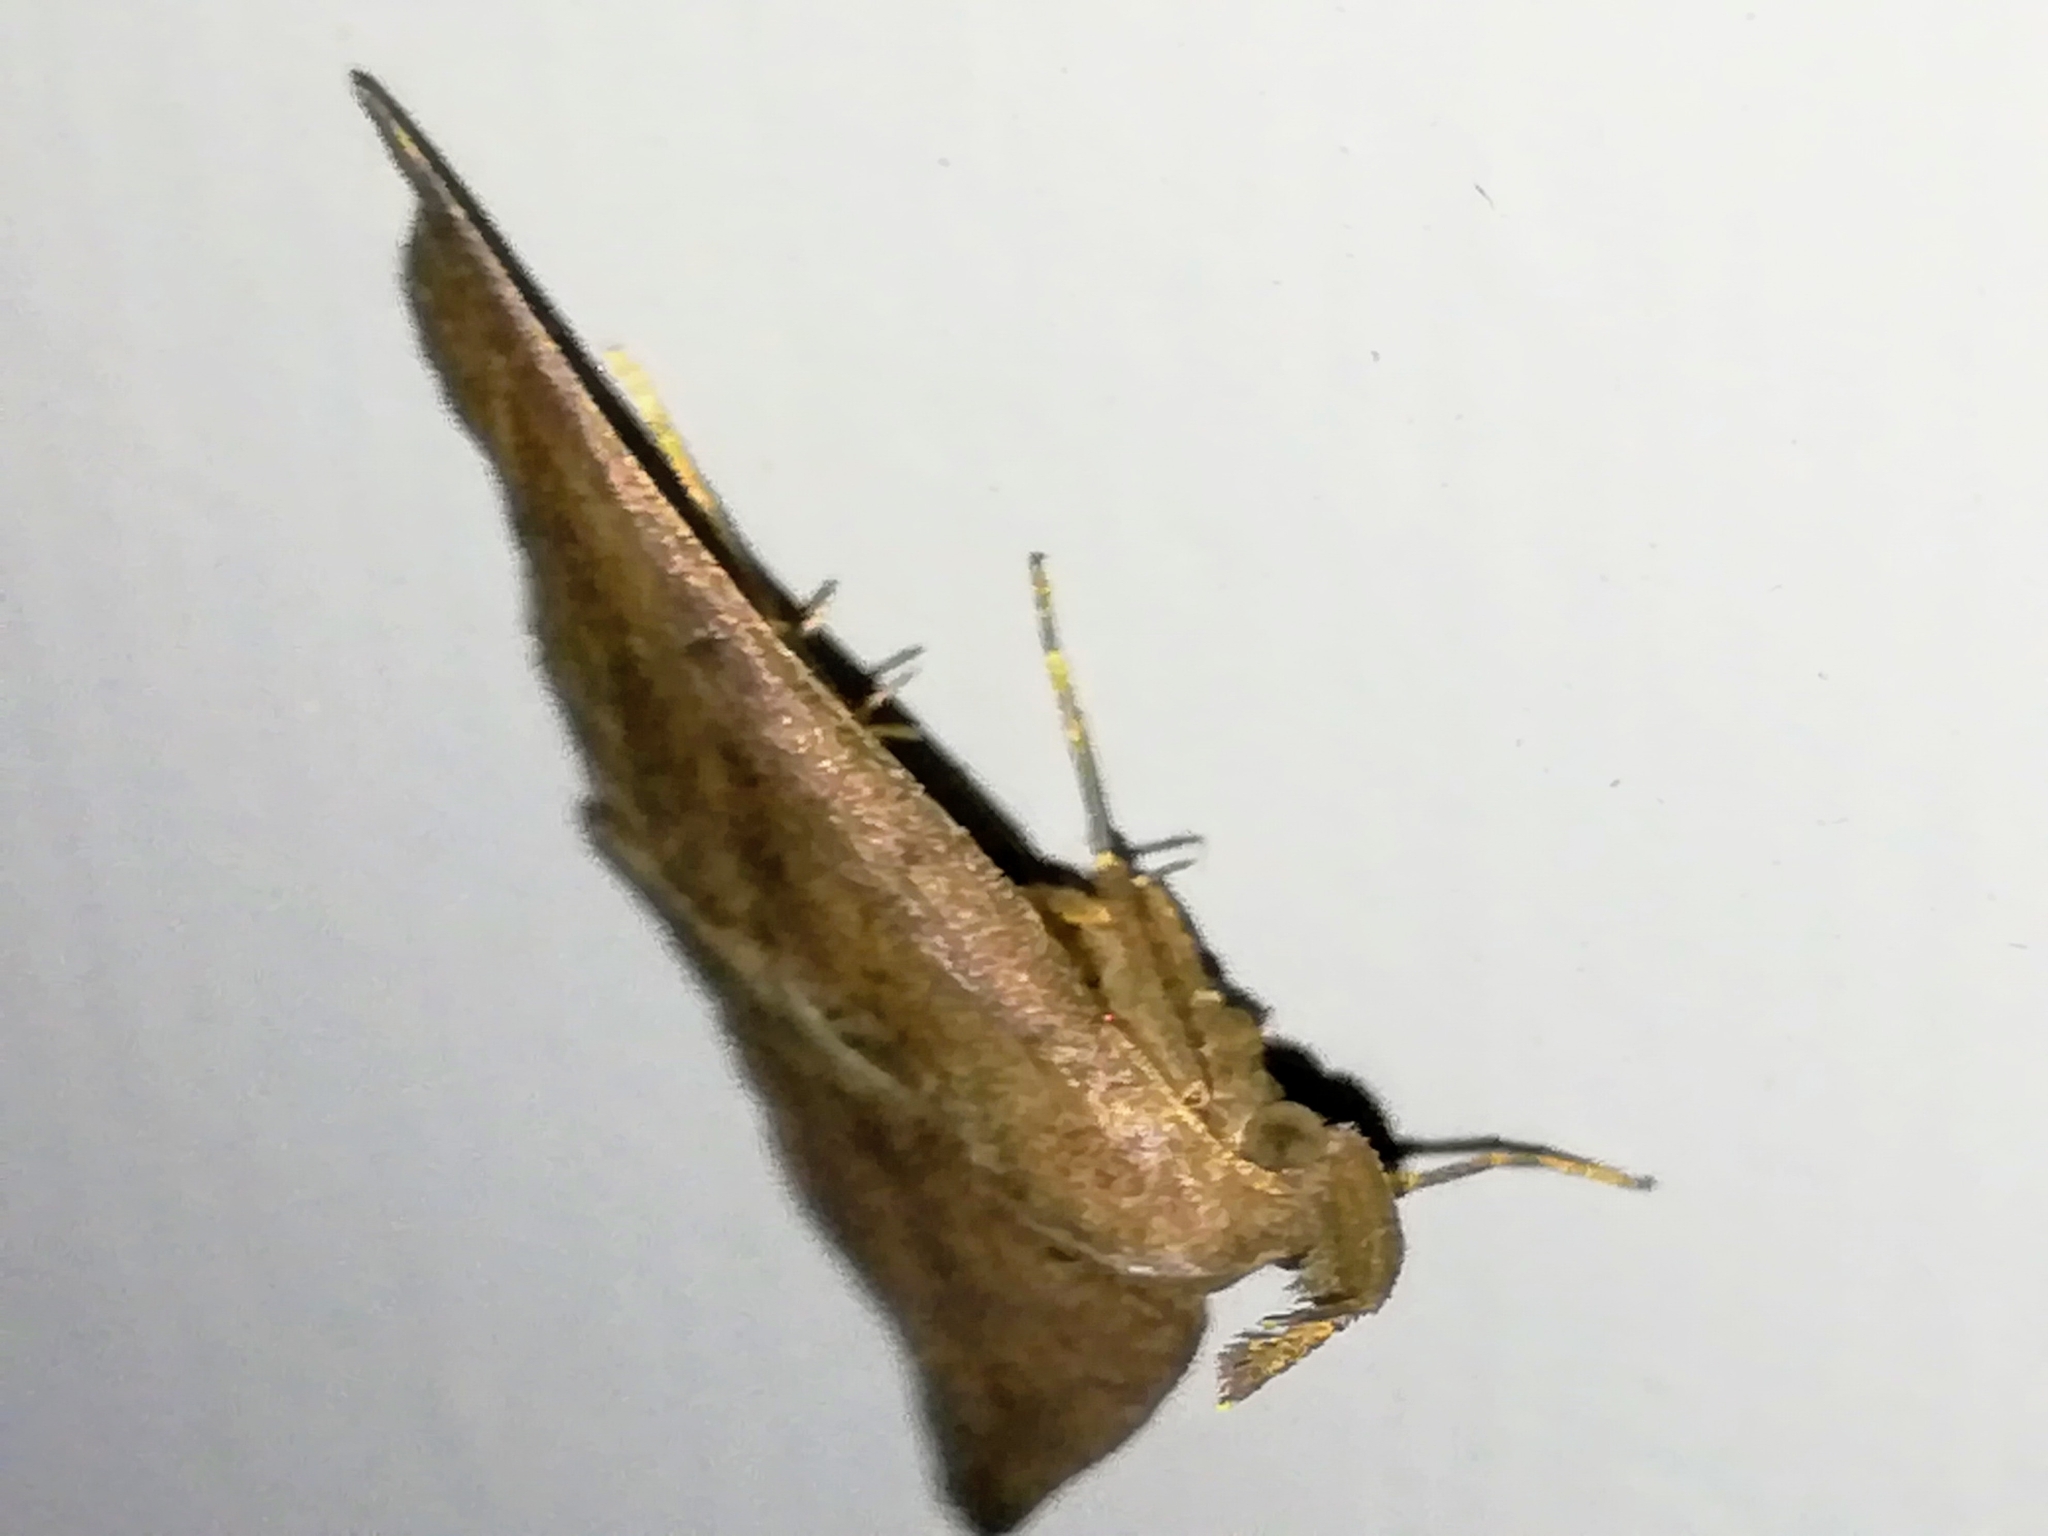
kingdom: Animalia
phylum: Arthropoda
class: Insecta
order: Lepidoptera
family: Erebidae
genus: Pechipogo
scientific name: Pechipogo plumigeralis
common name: Plumed fan-foot
